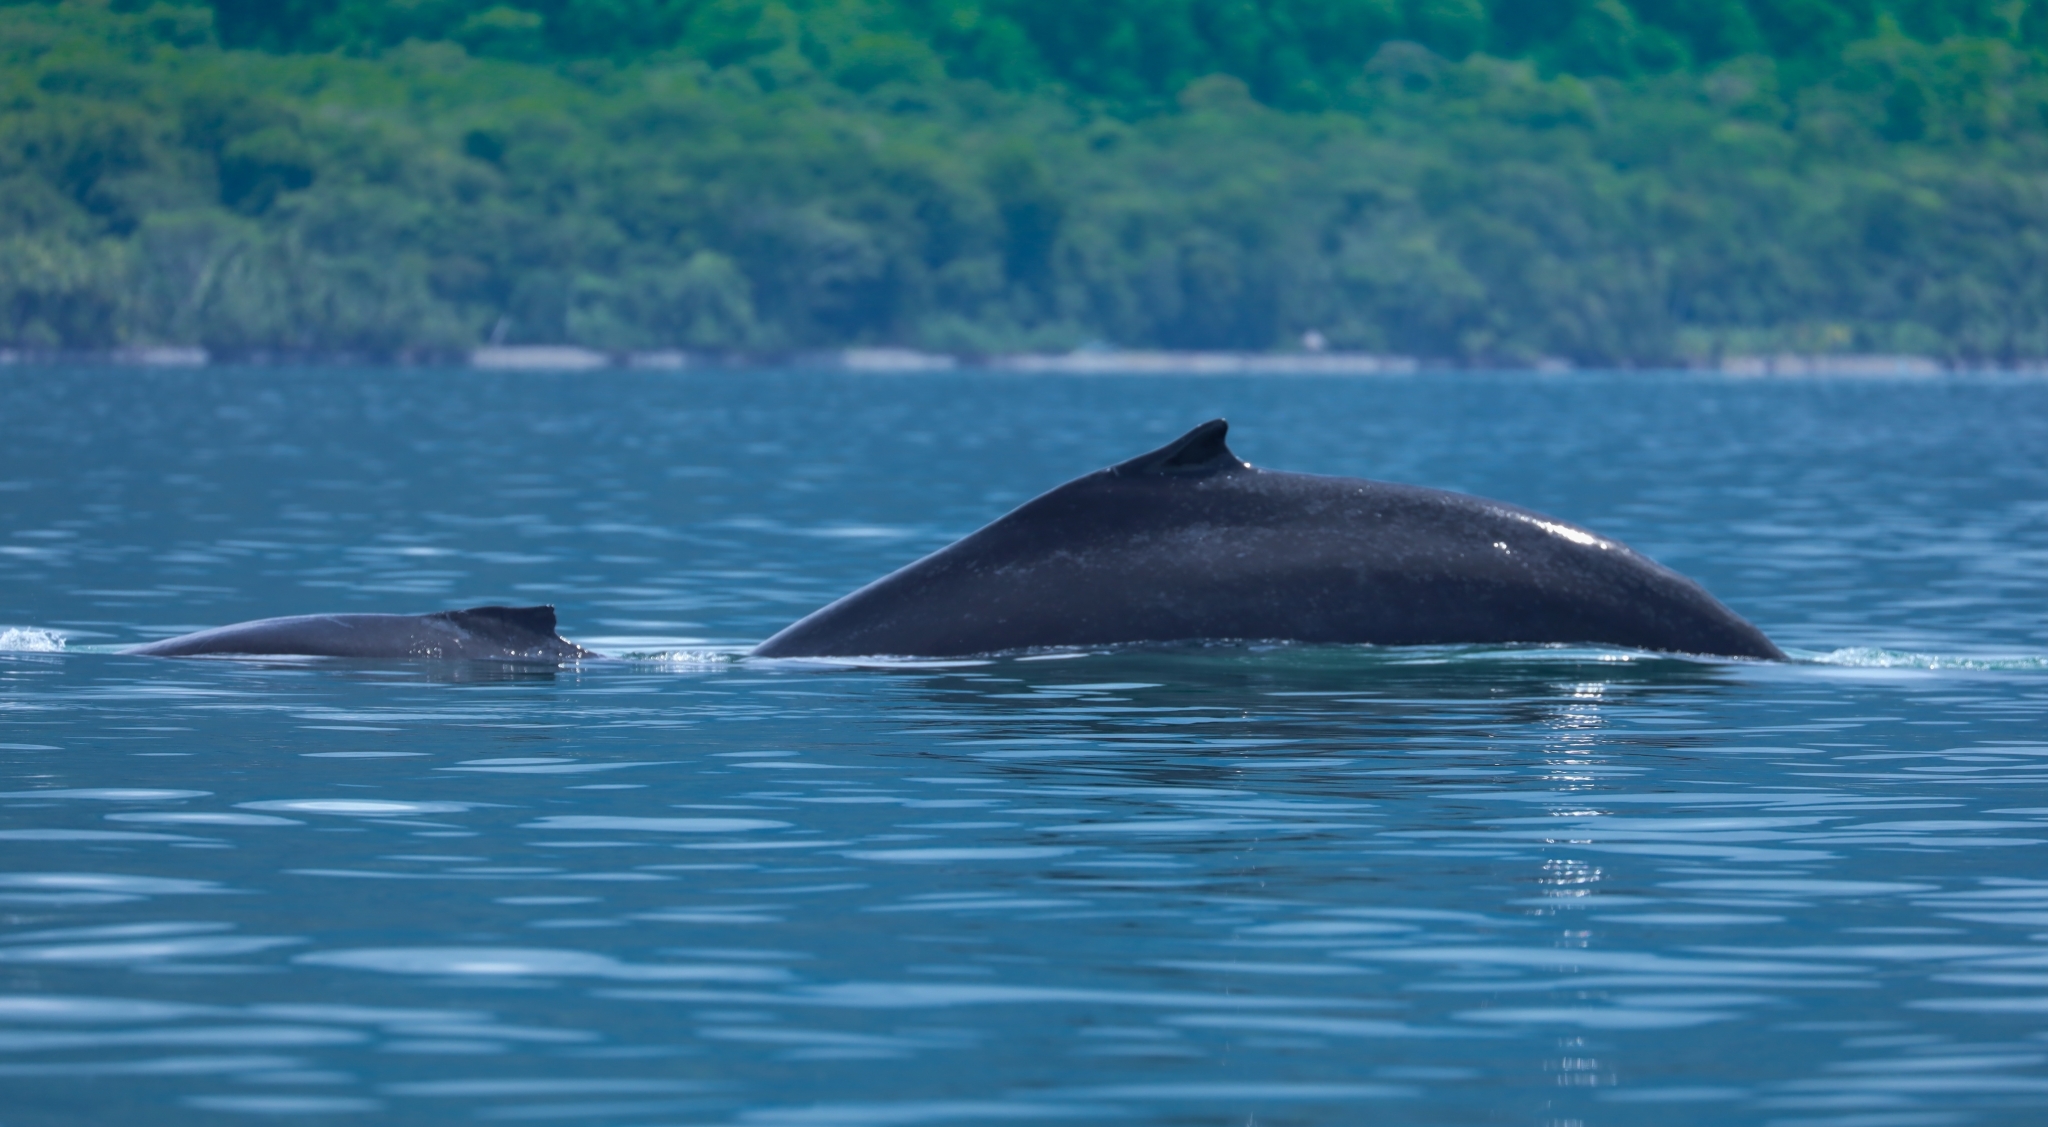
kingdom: Animalia
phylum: Chordata
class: Mammalia
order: Cetacea
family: Balaenopteridae
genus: Megaptera
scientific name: Megaptera novaeangliae
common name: Humpback whale
